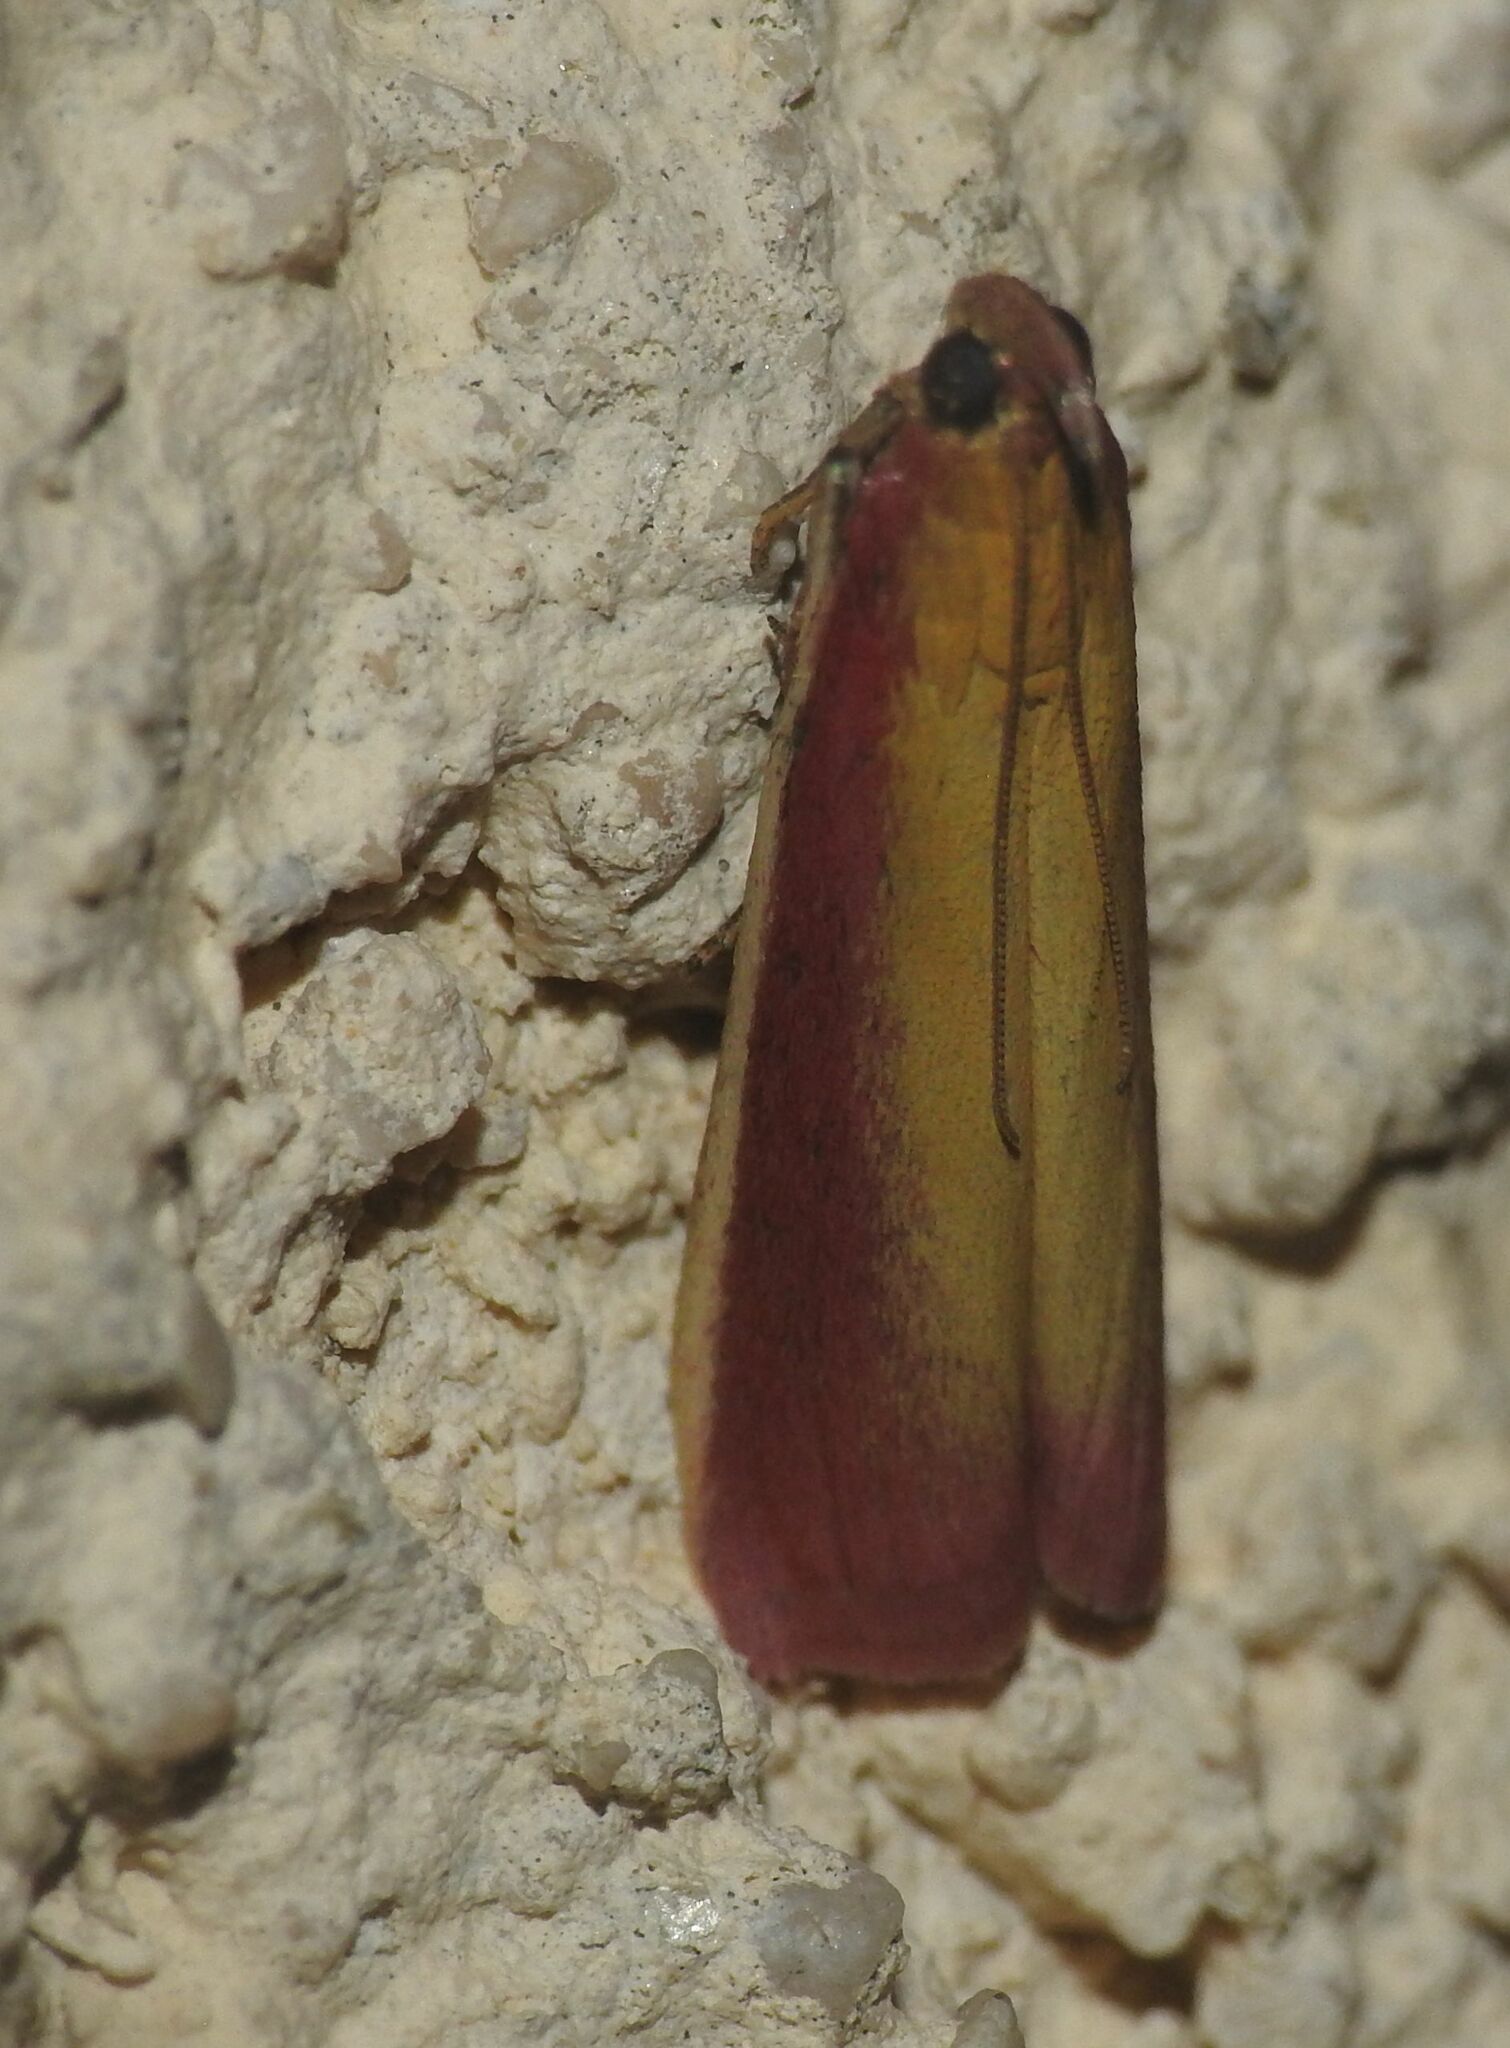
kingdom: Animalia
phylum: Arthropoda
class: Insecta
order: Lepidoptera
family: Pyralidae
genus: Oncocera
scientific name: Oncocera semirubella
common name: Rosy-striped knot-horn
